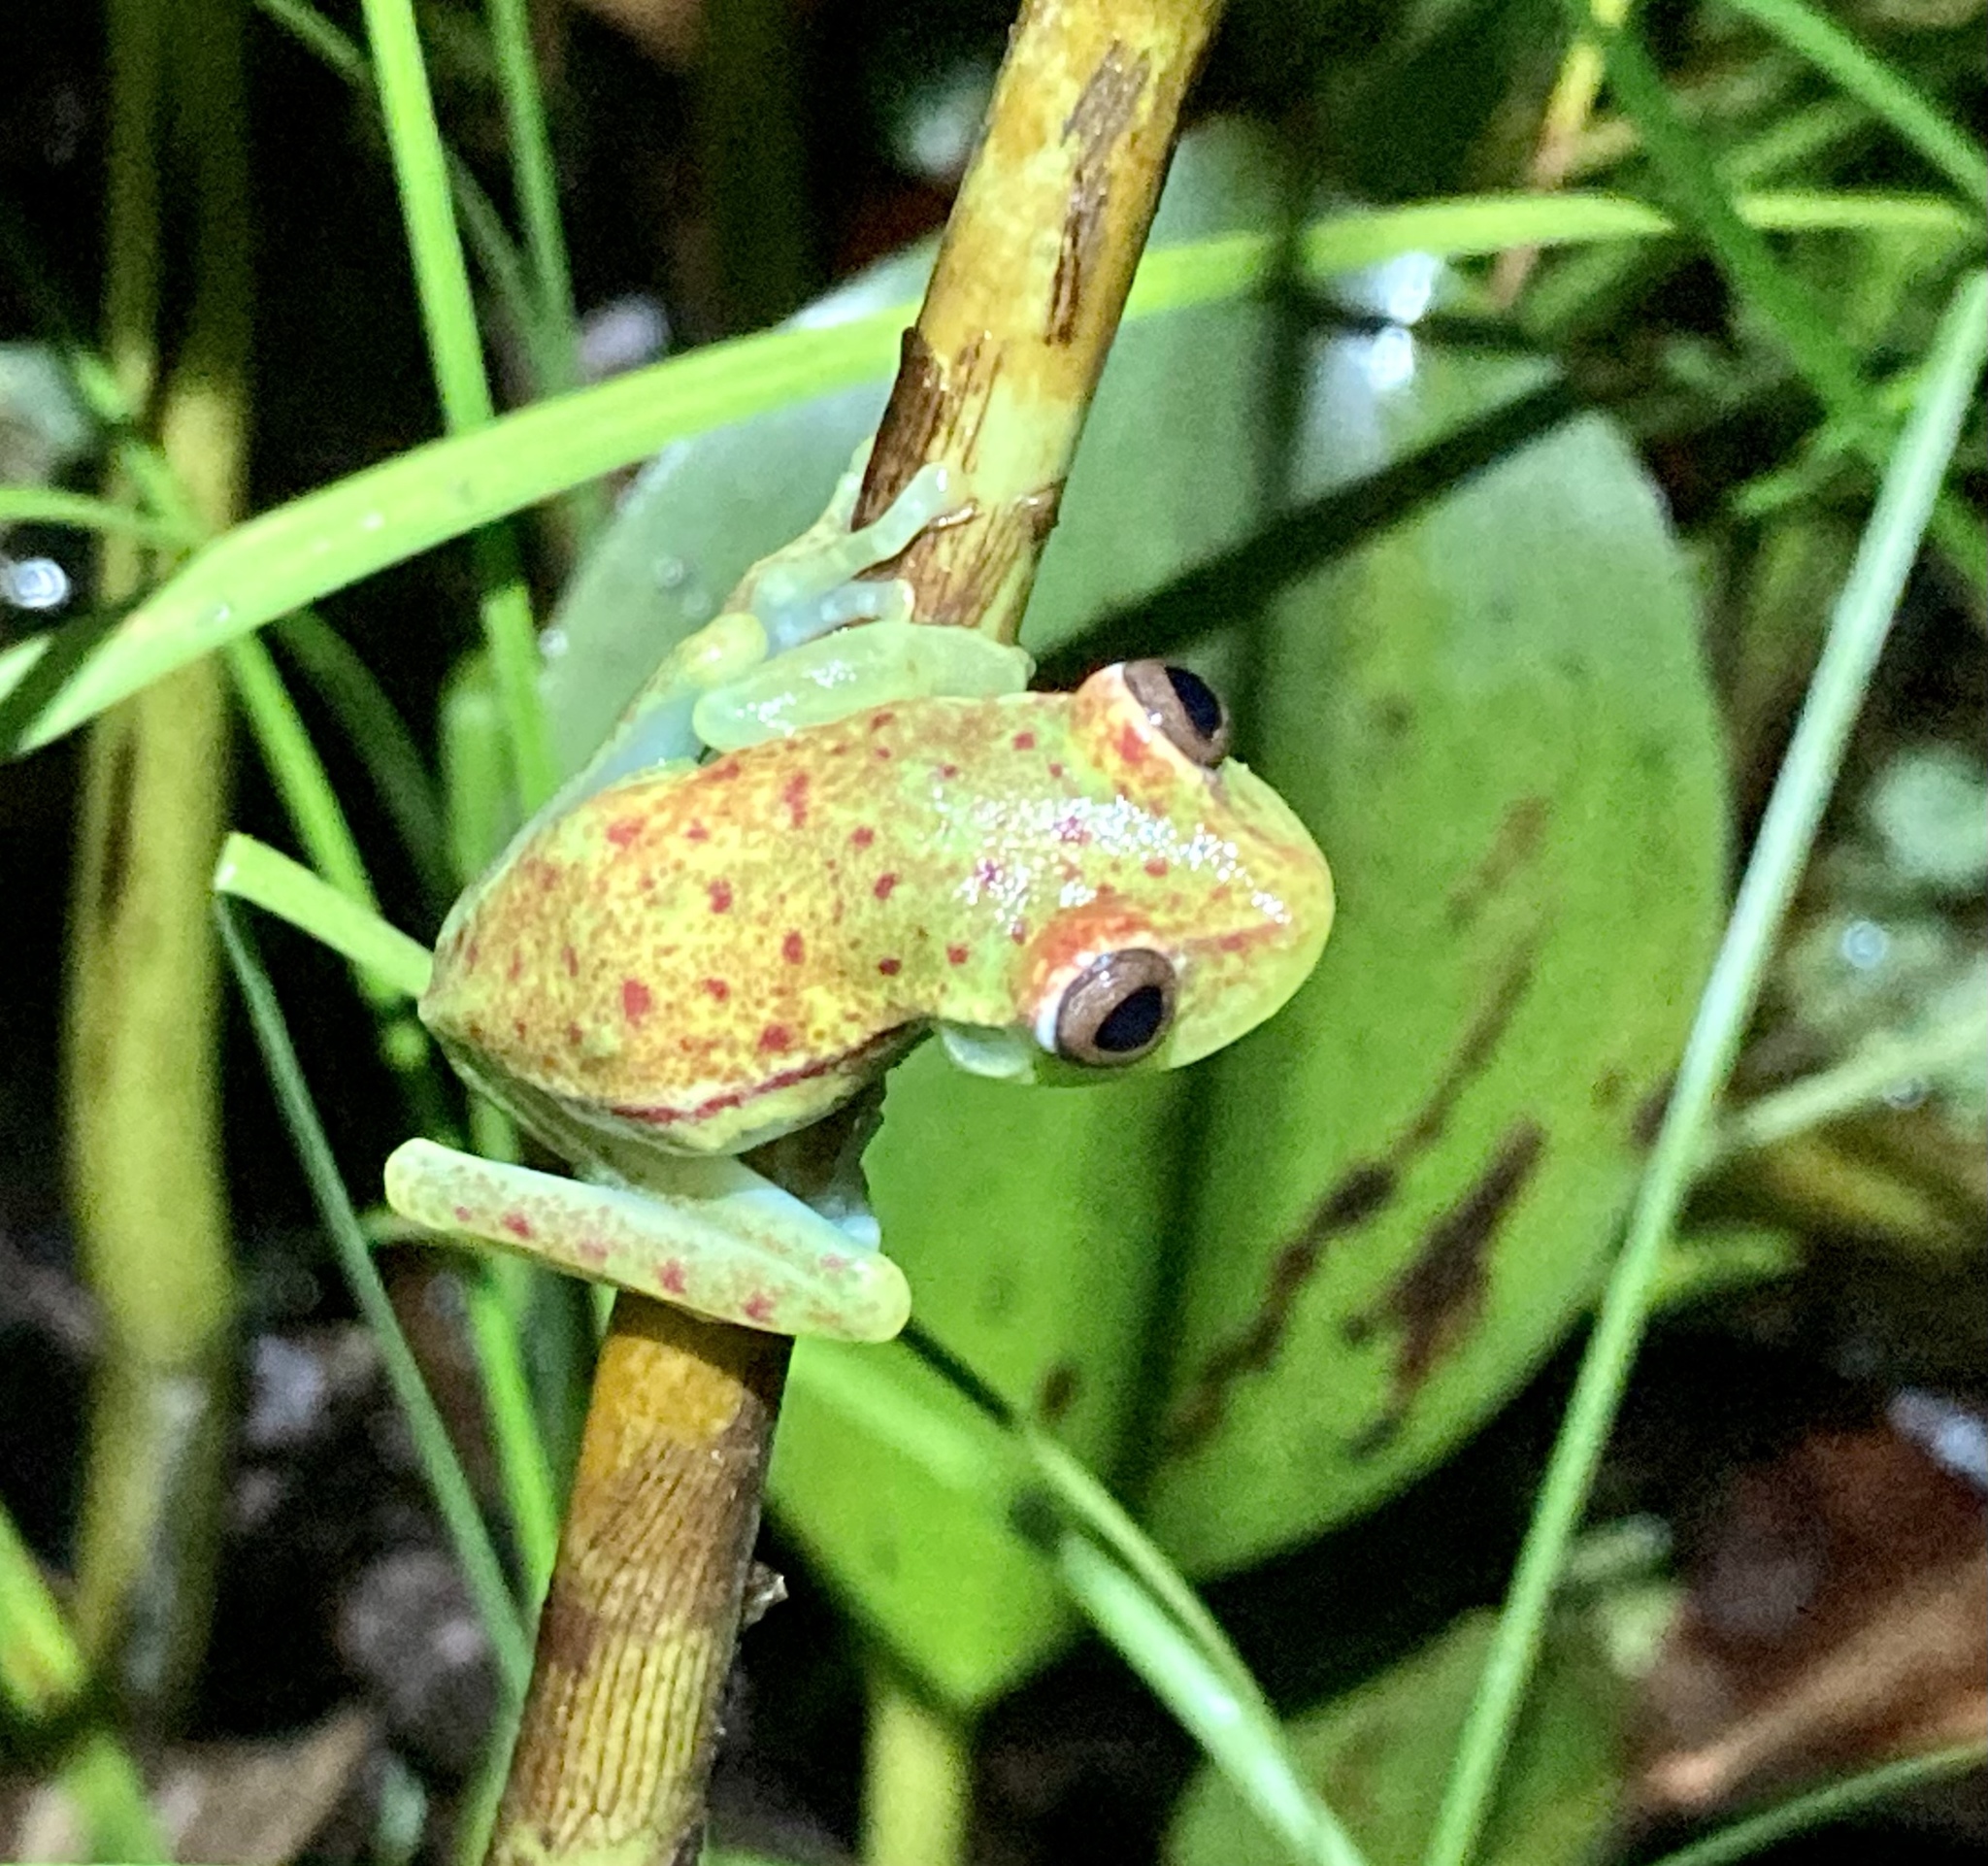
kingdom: Animalia
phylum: Chordata
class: Amphibia
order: Anura
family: Hylidae
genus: Boana
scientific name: Boana punctata
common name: Polka-dot treefrog
